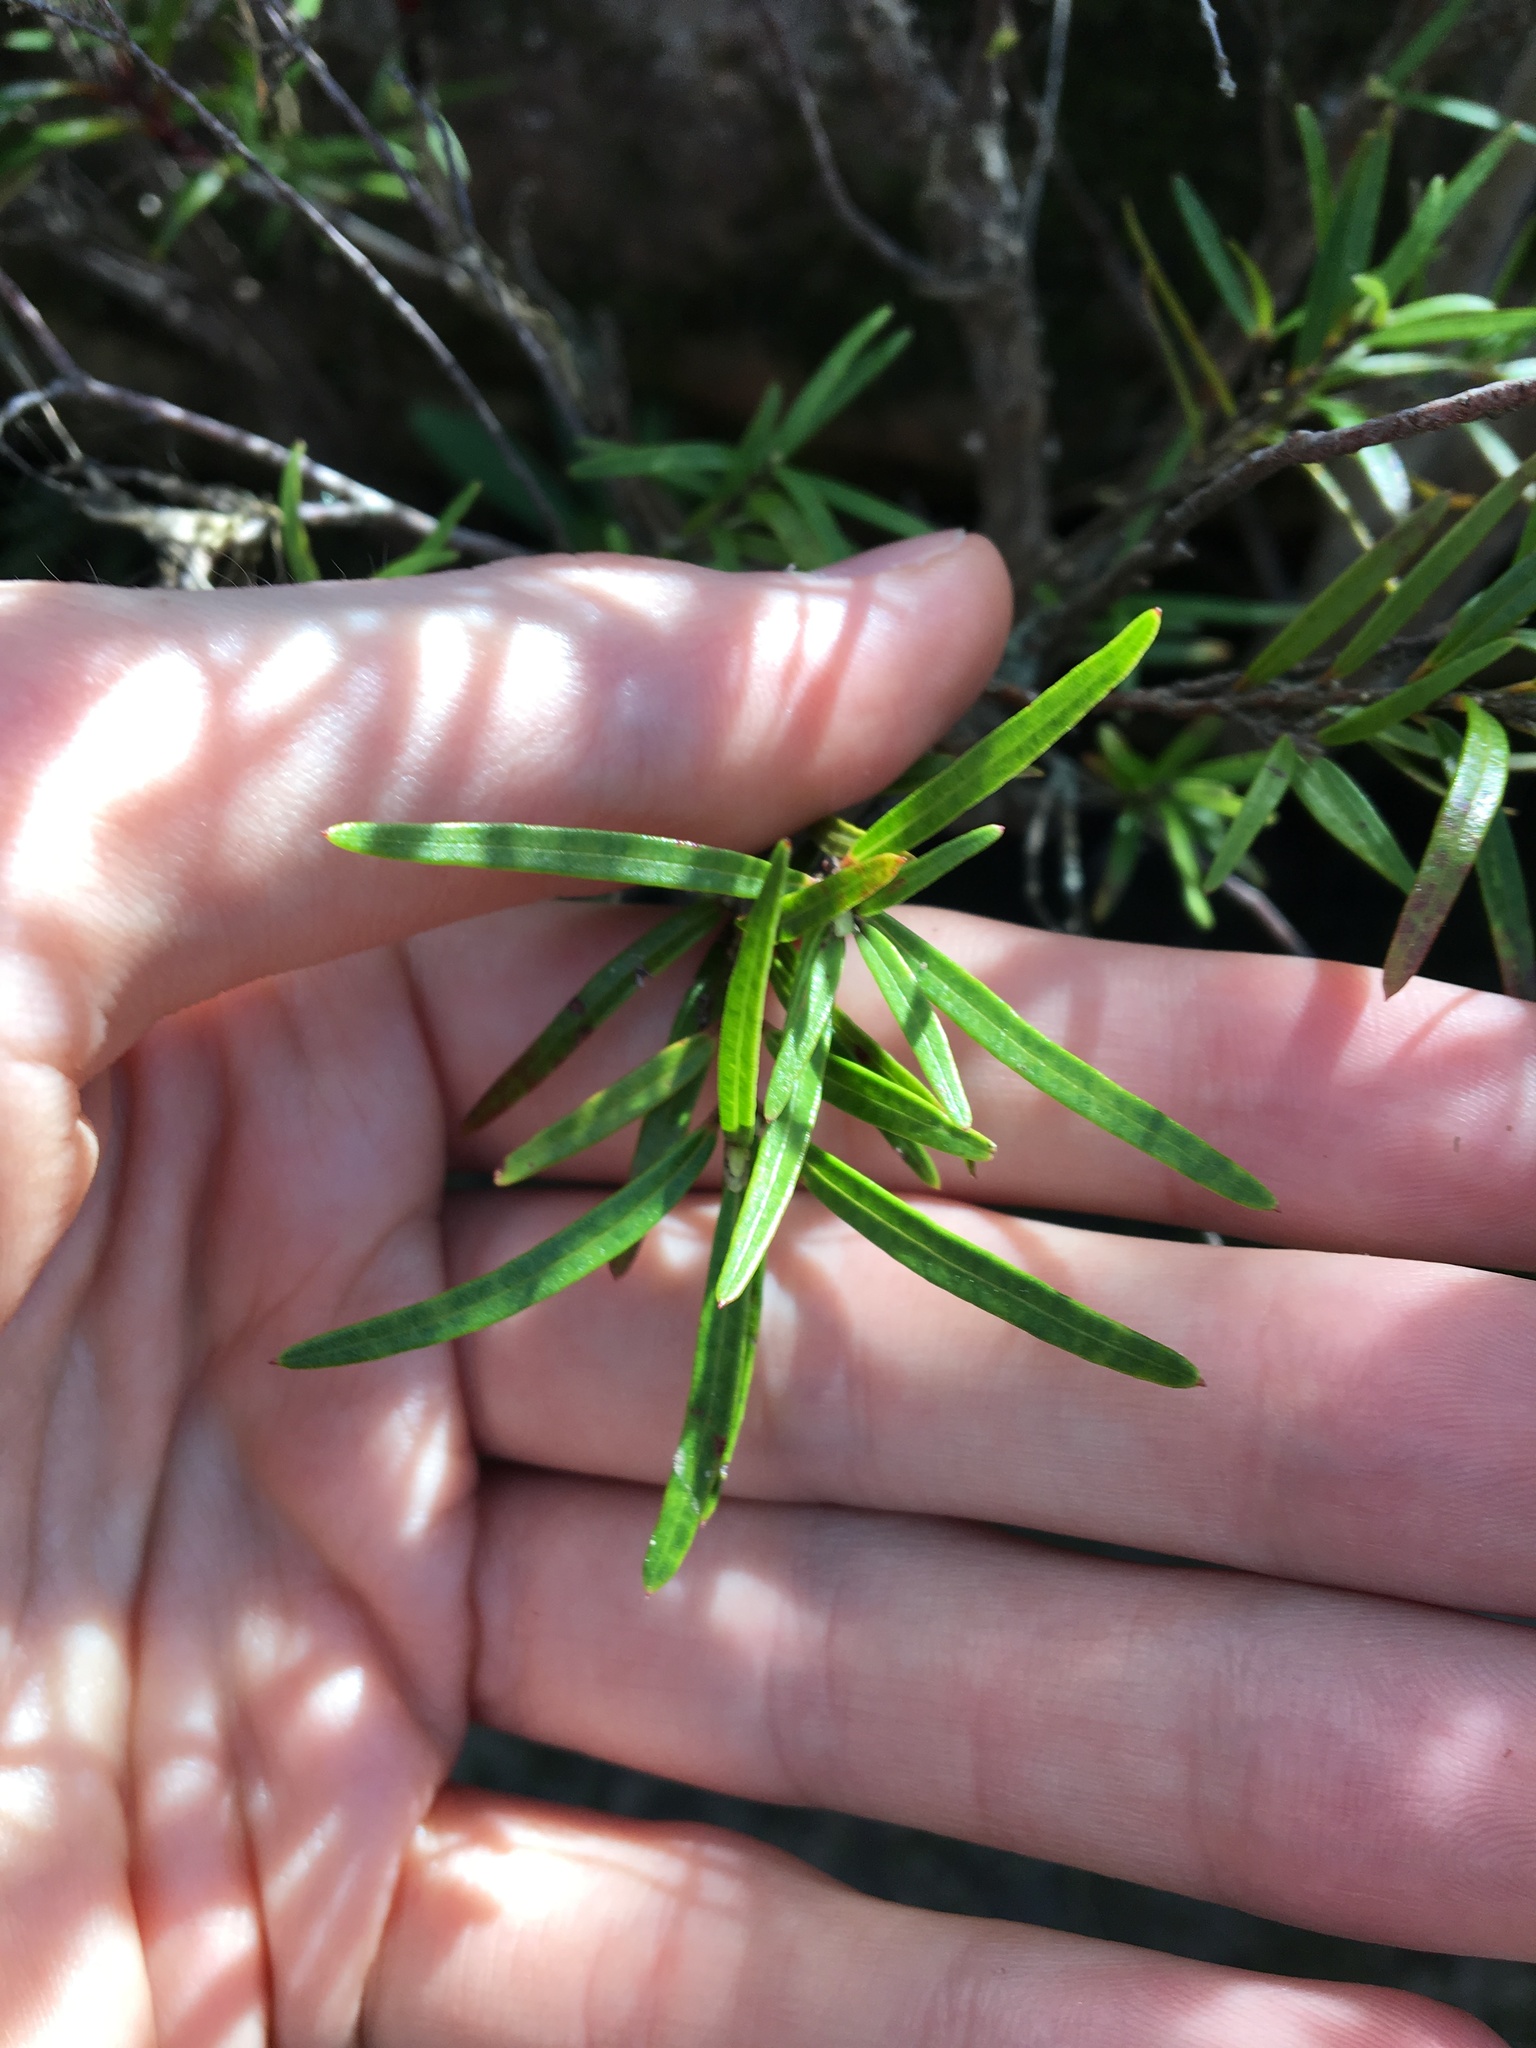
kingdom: Plantae
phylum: Tracheophyta
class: Magnoliopsida
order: Myrtales
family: Myrtaceae
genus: Austromyrtus
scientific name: Austromyrtus tenuifolia
